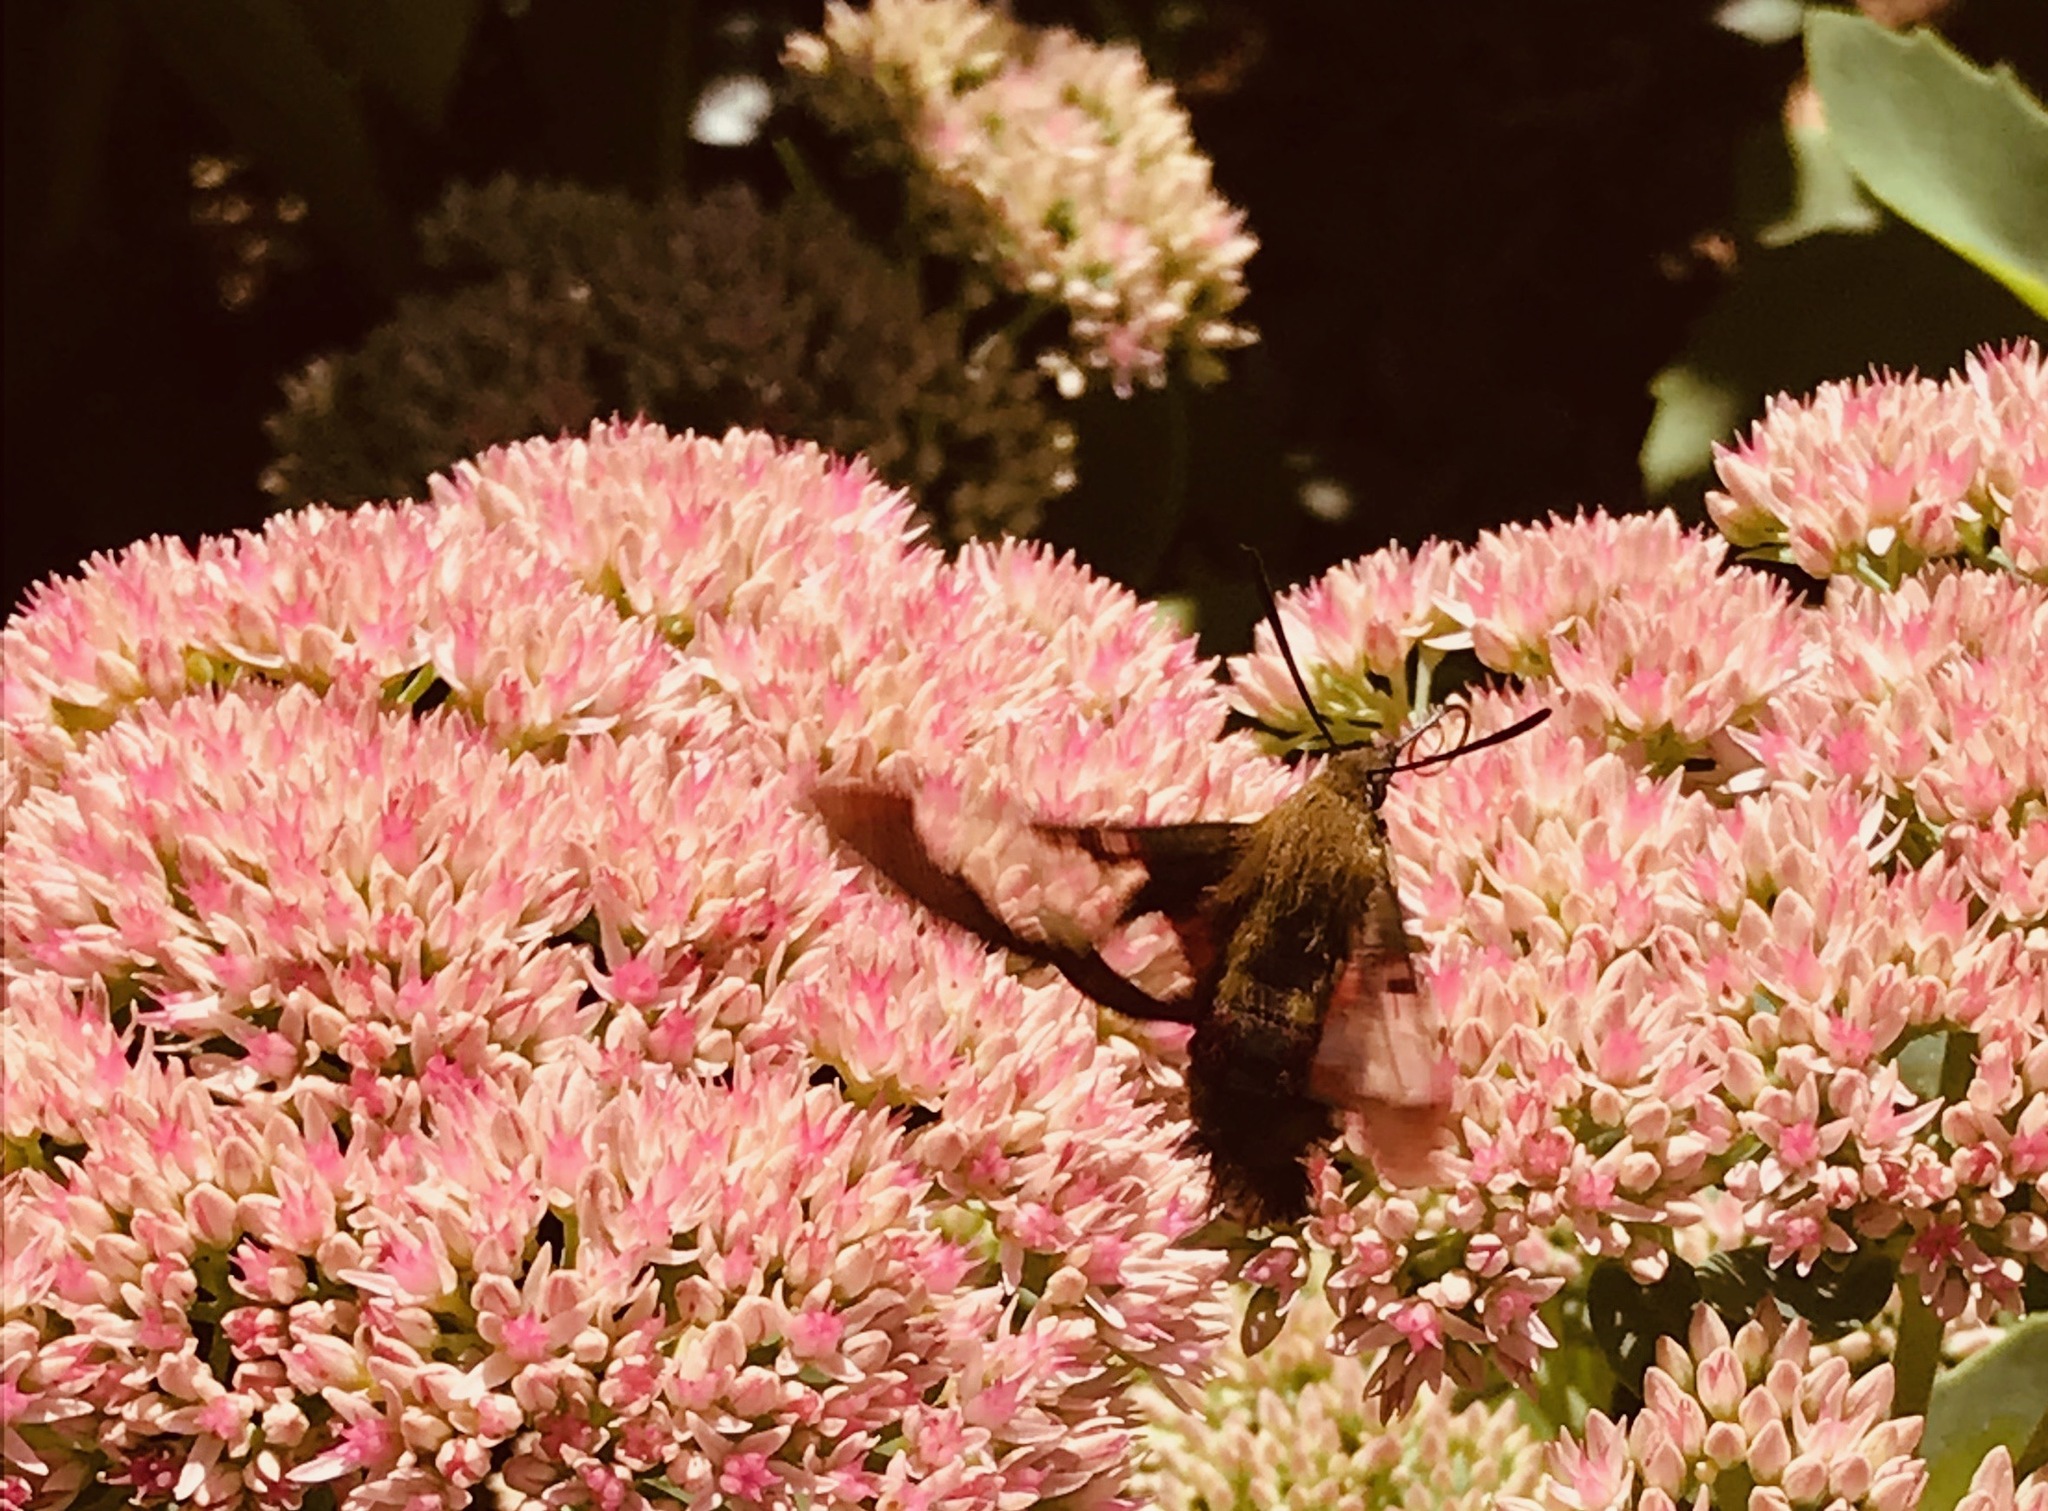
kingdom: Animalia
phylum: Arthropoda
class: Insecta
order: Lepidoptera
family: Sphingidae
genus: Hemaris
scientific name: Hemaris thysbe
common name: Common clear-wing
